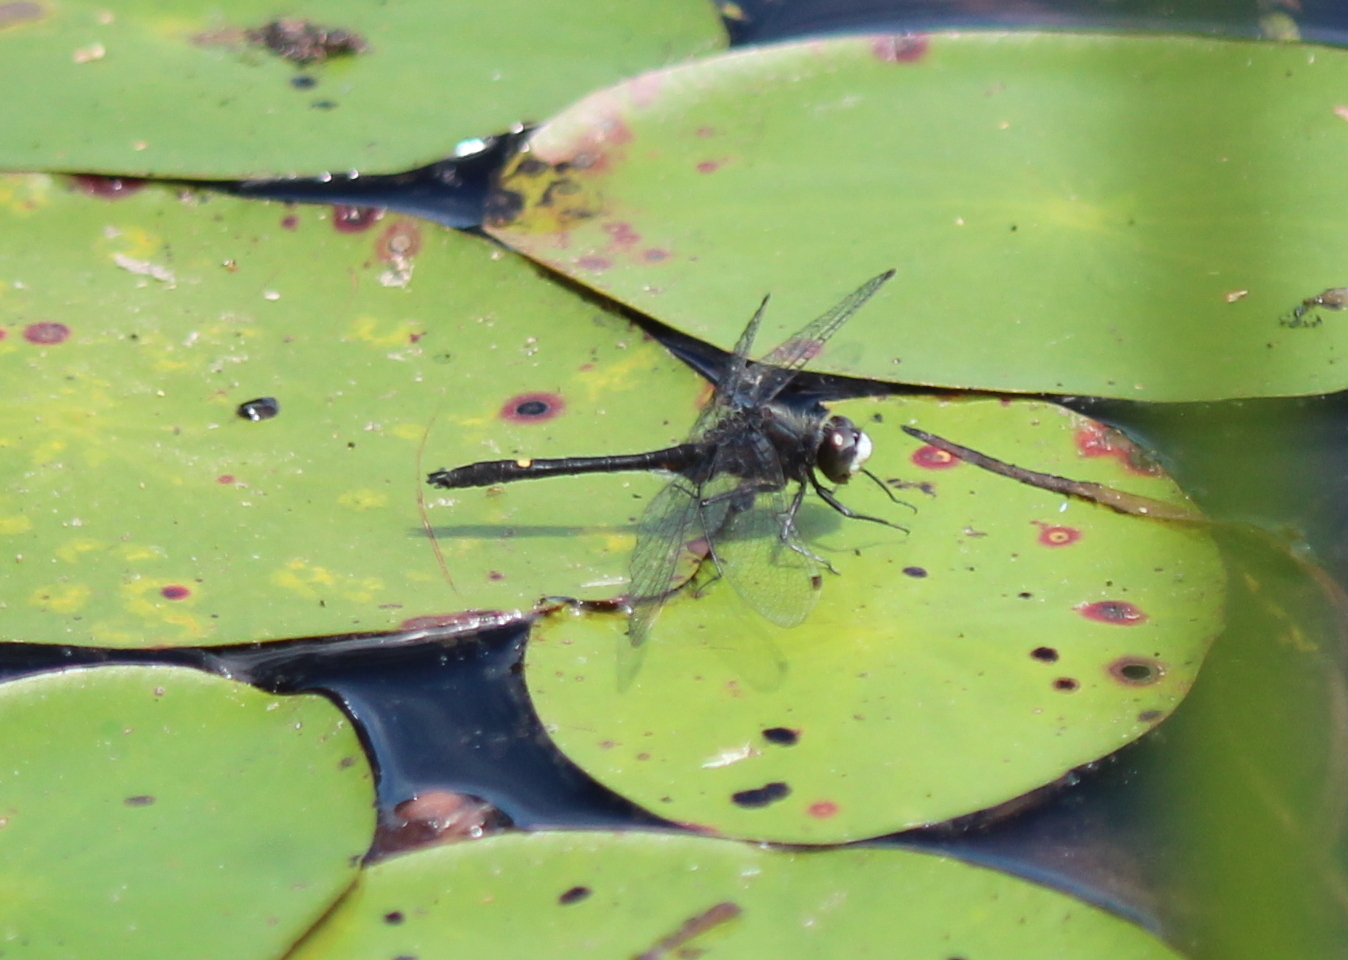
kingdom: Animalia
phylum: Arthropoda
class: Insecta
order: Odonata
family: Libellulidae
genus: Leucorrhinia
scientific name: Leucorrhinia intacta
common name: Dot-tailed whiteface
